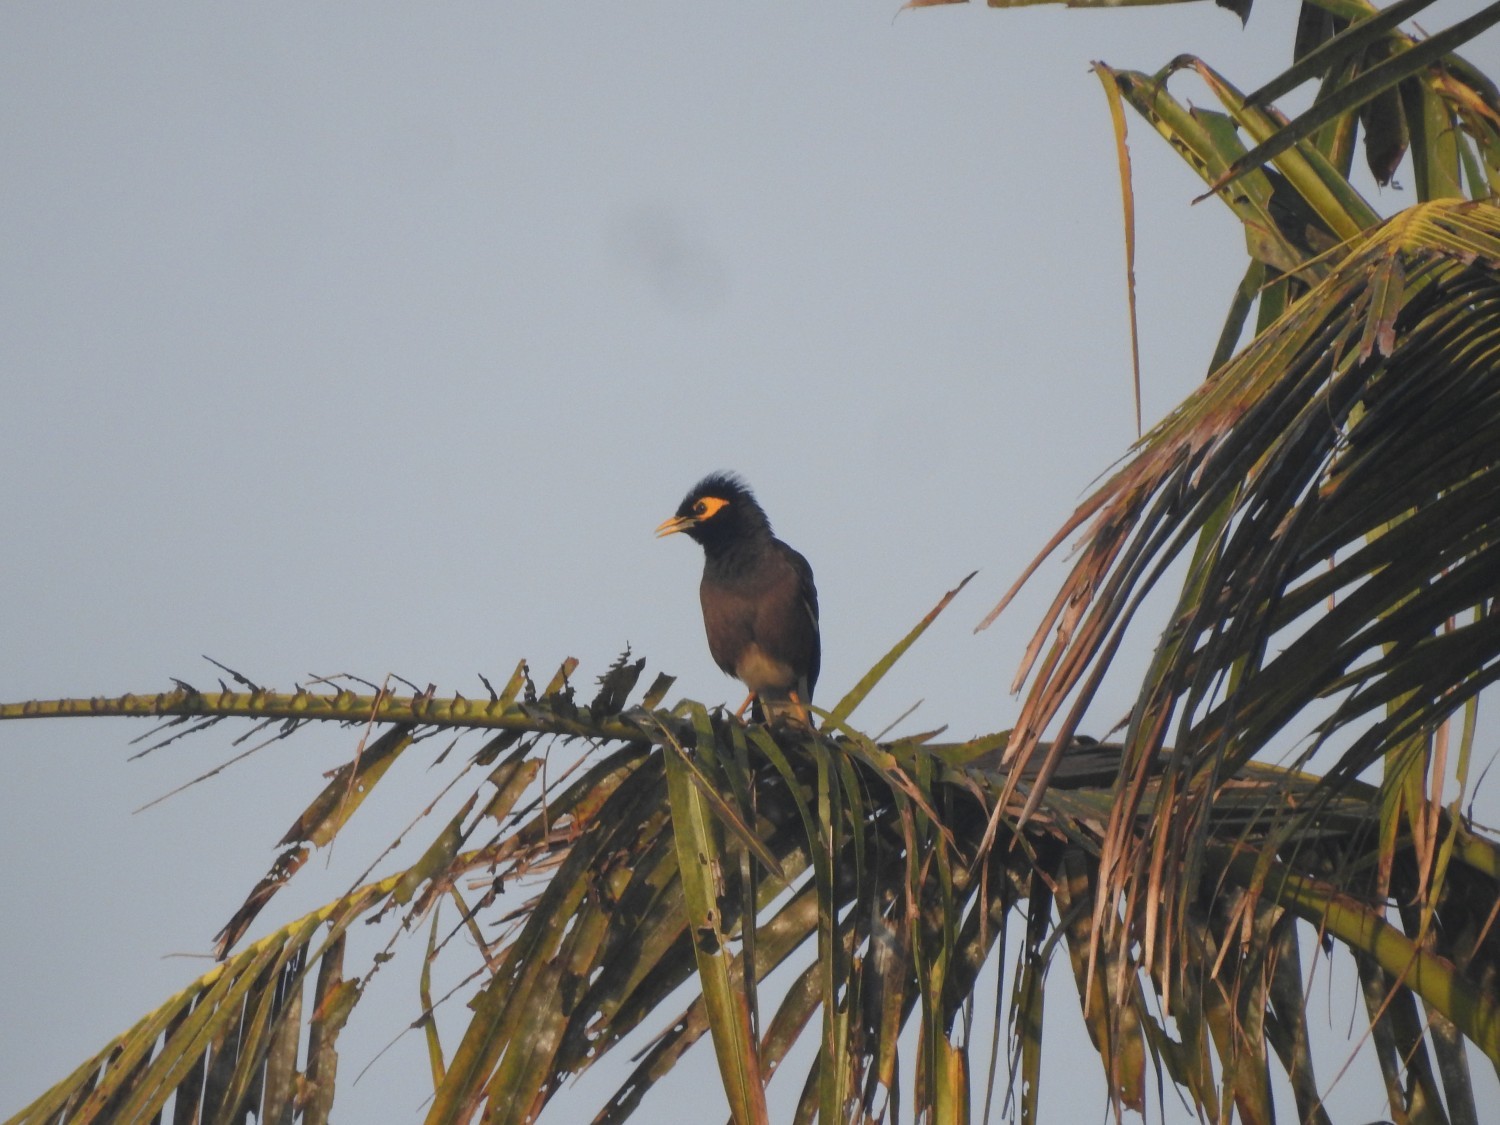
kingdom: Animalia
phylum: Chordata
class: Aves
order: Passeriformes
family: Sturnidae
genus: Acridotheres
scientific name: Acridotheres tristis
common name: Common myna
